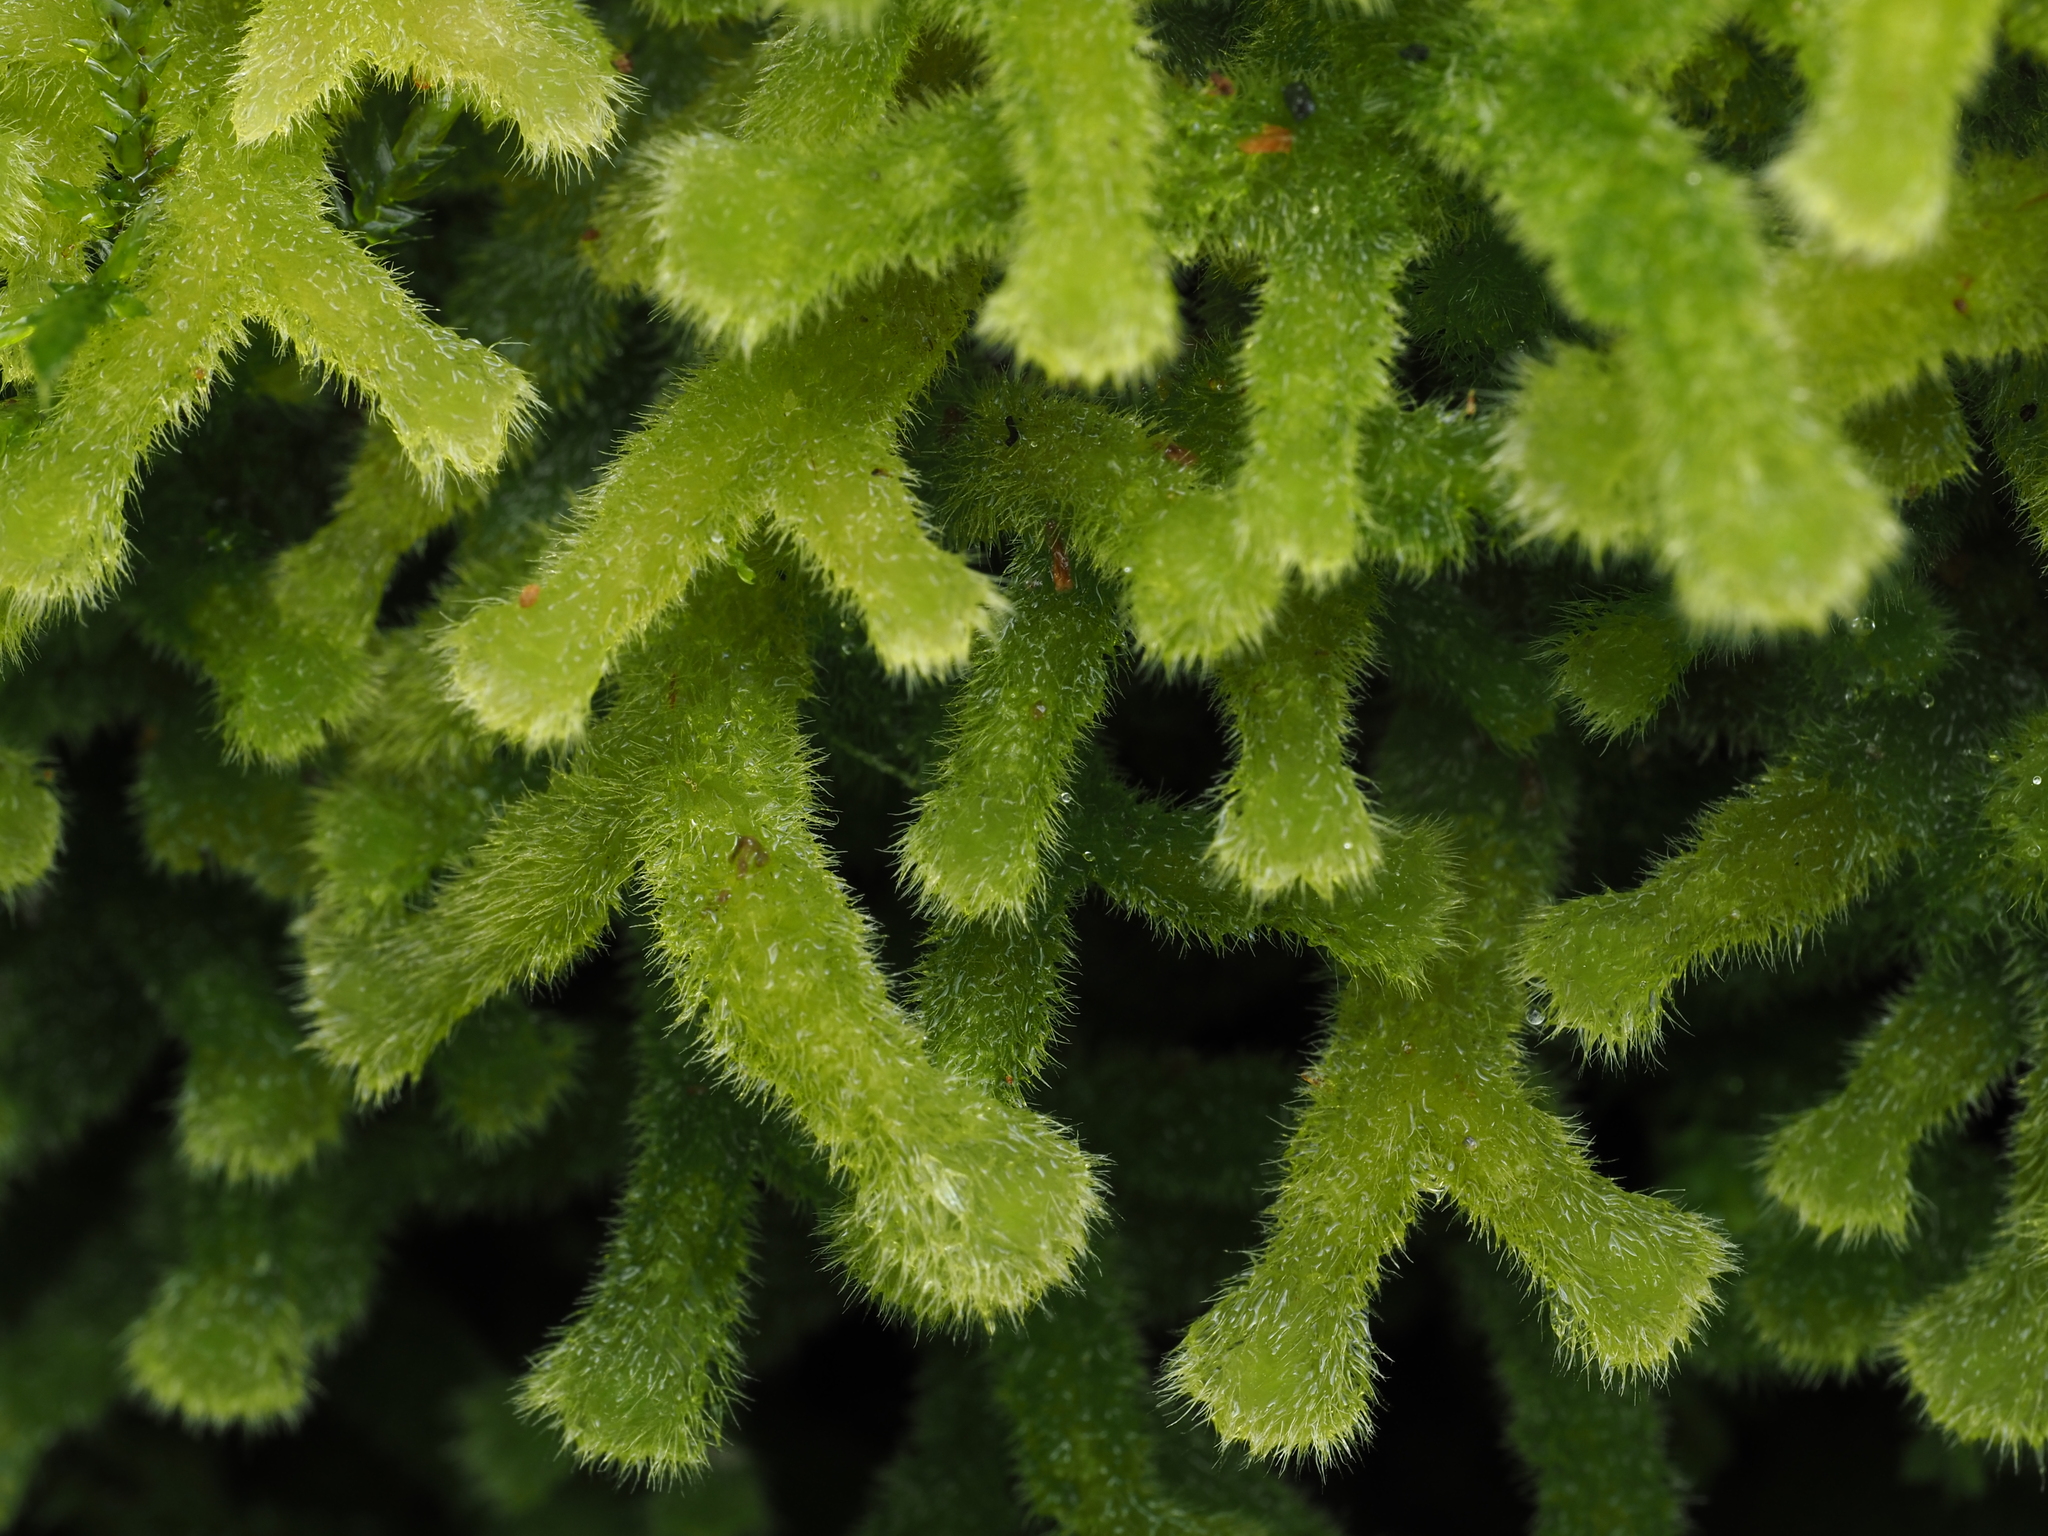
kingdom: Plantae
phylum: Marchantiophyta
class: Jungermanniopsida
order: Jungermanniales
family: Trichocoleaceae
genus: Leiomitra
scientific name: Leiomitra lanata
